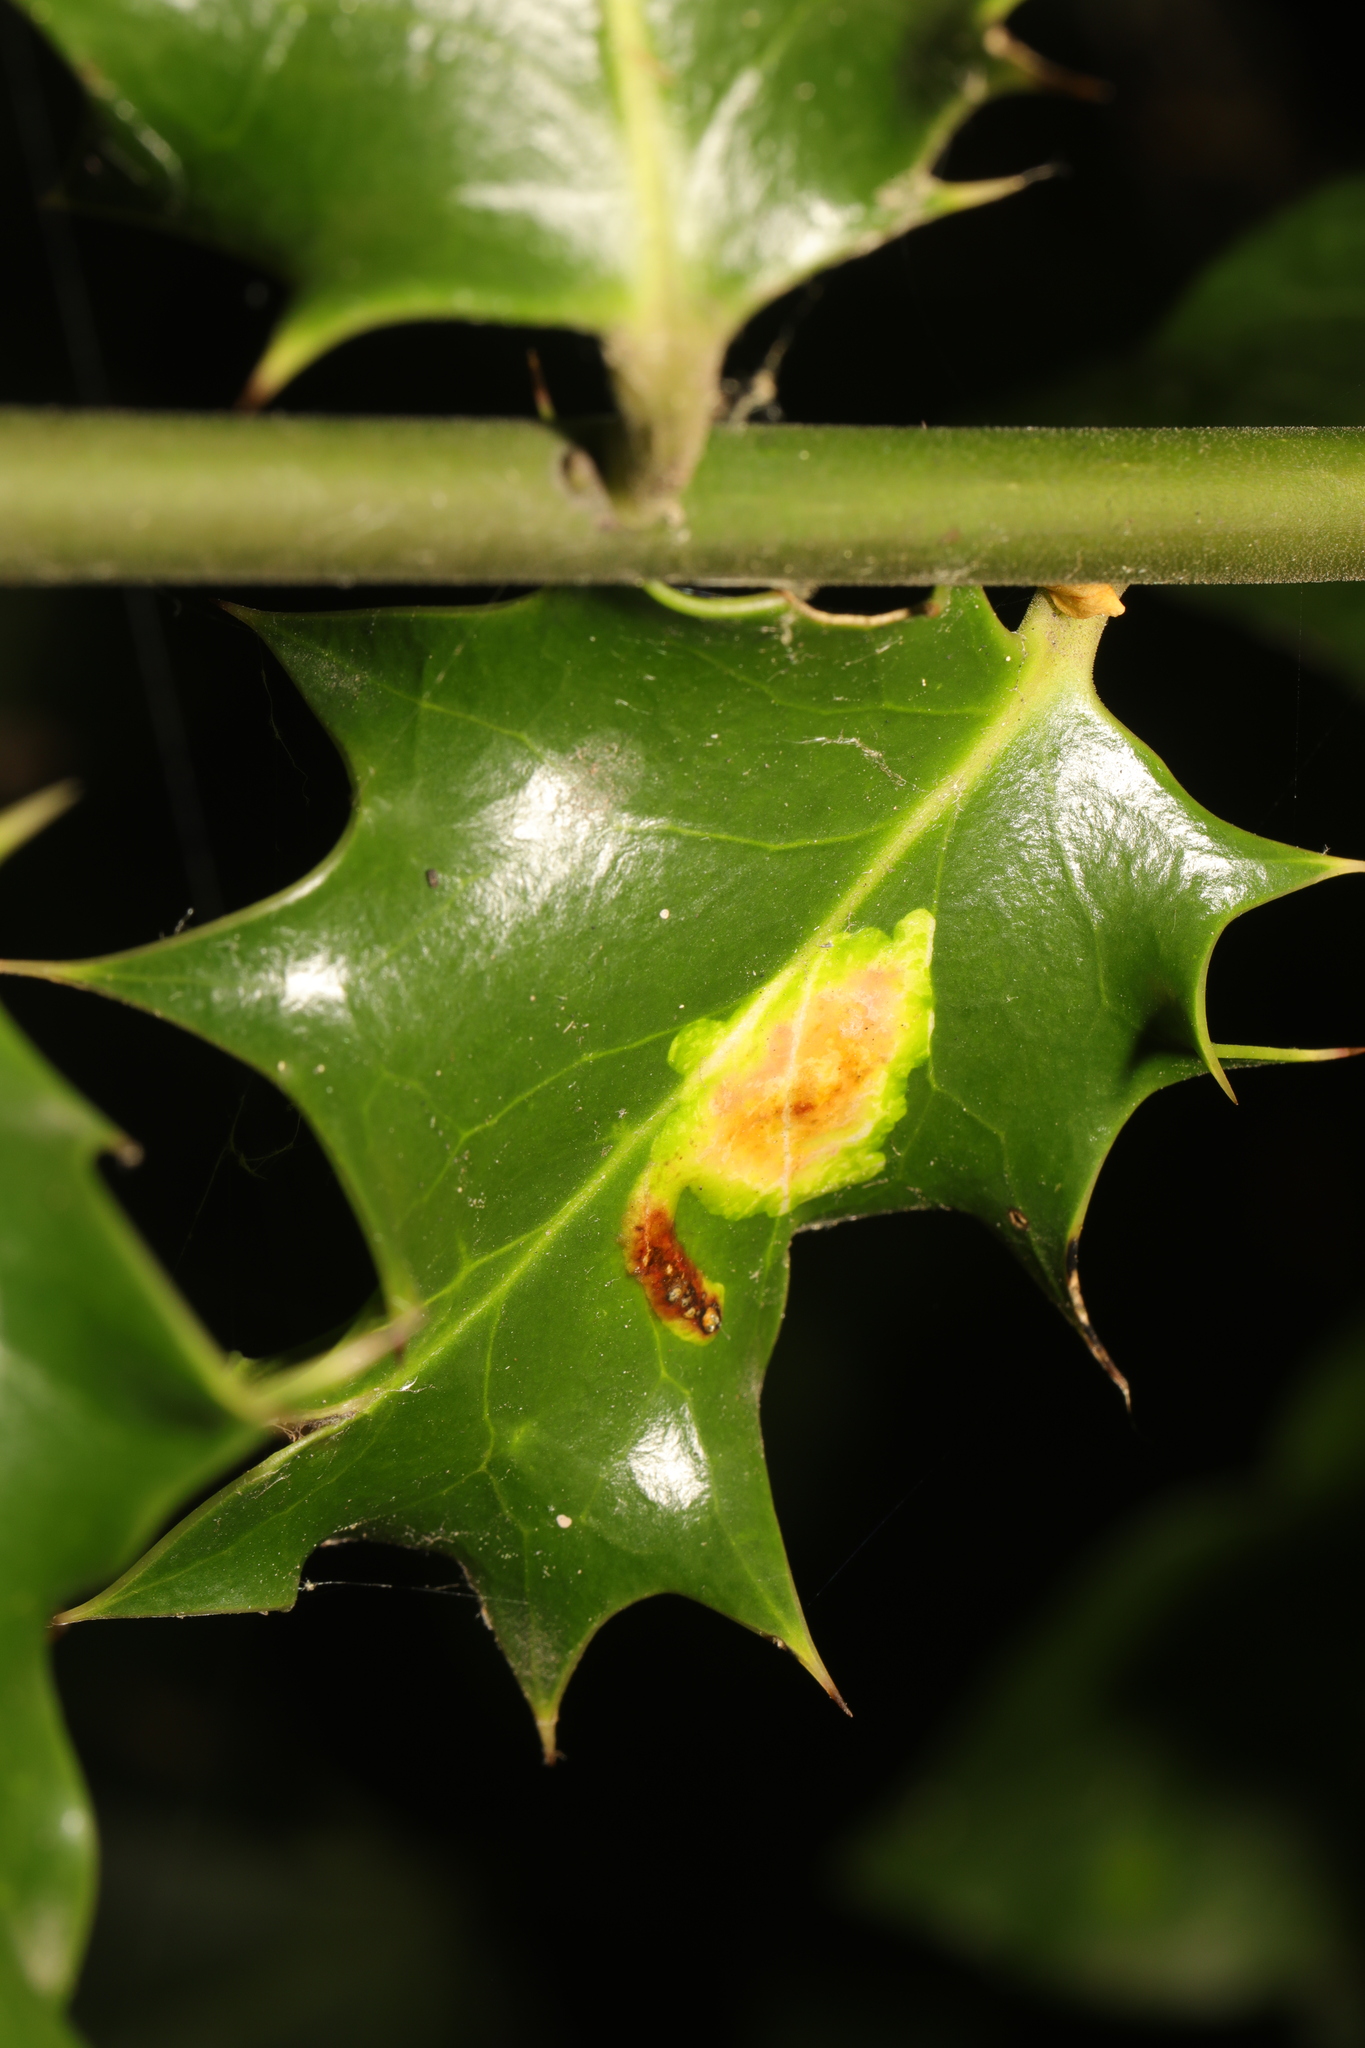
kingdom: Animalia
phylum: Arthropoda
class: Insecta
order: Diptera
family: Agromyzidae
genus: Phytomyza
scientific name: Phytomyza ilicis
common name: Holly leafminer
